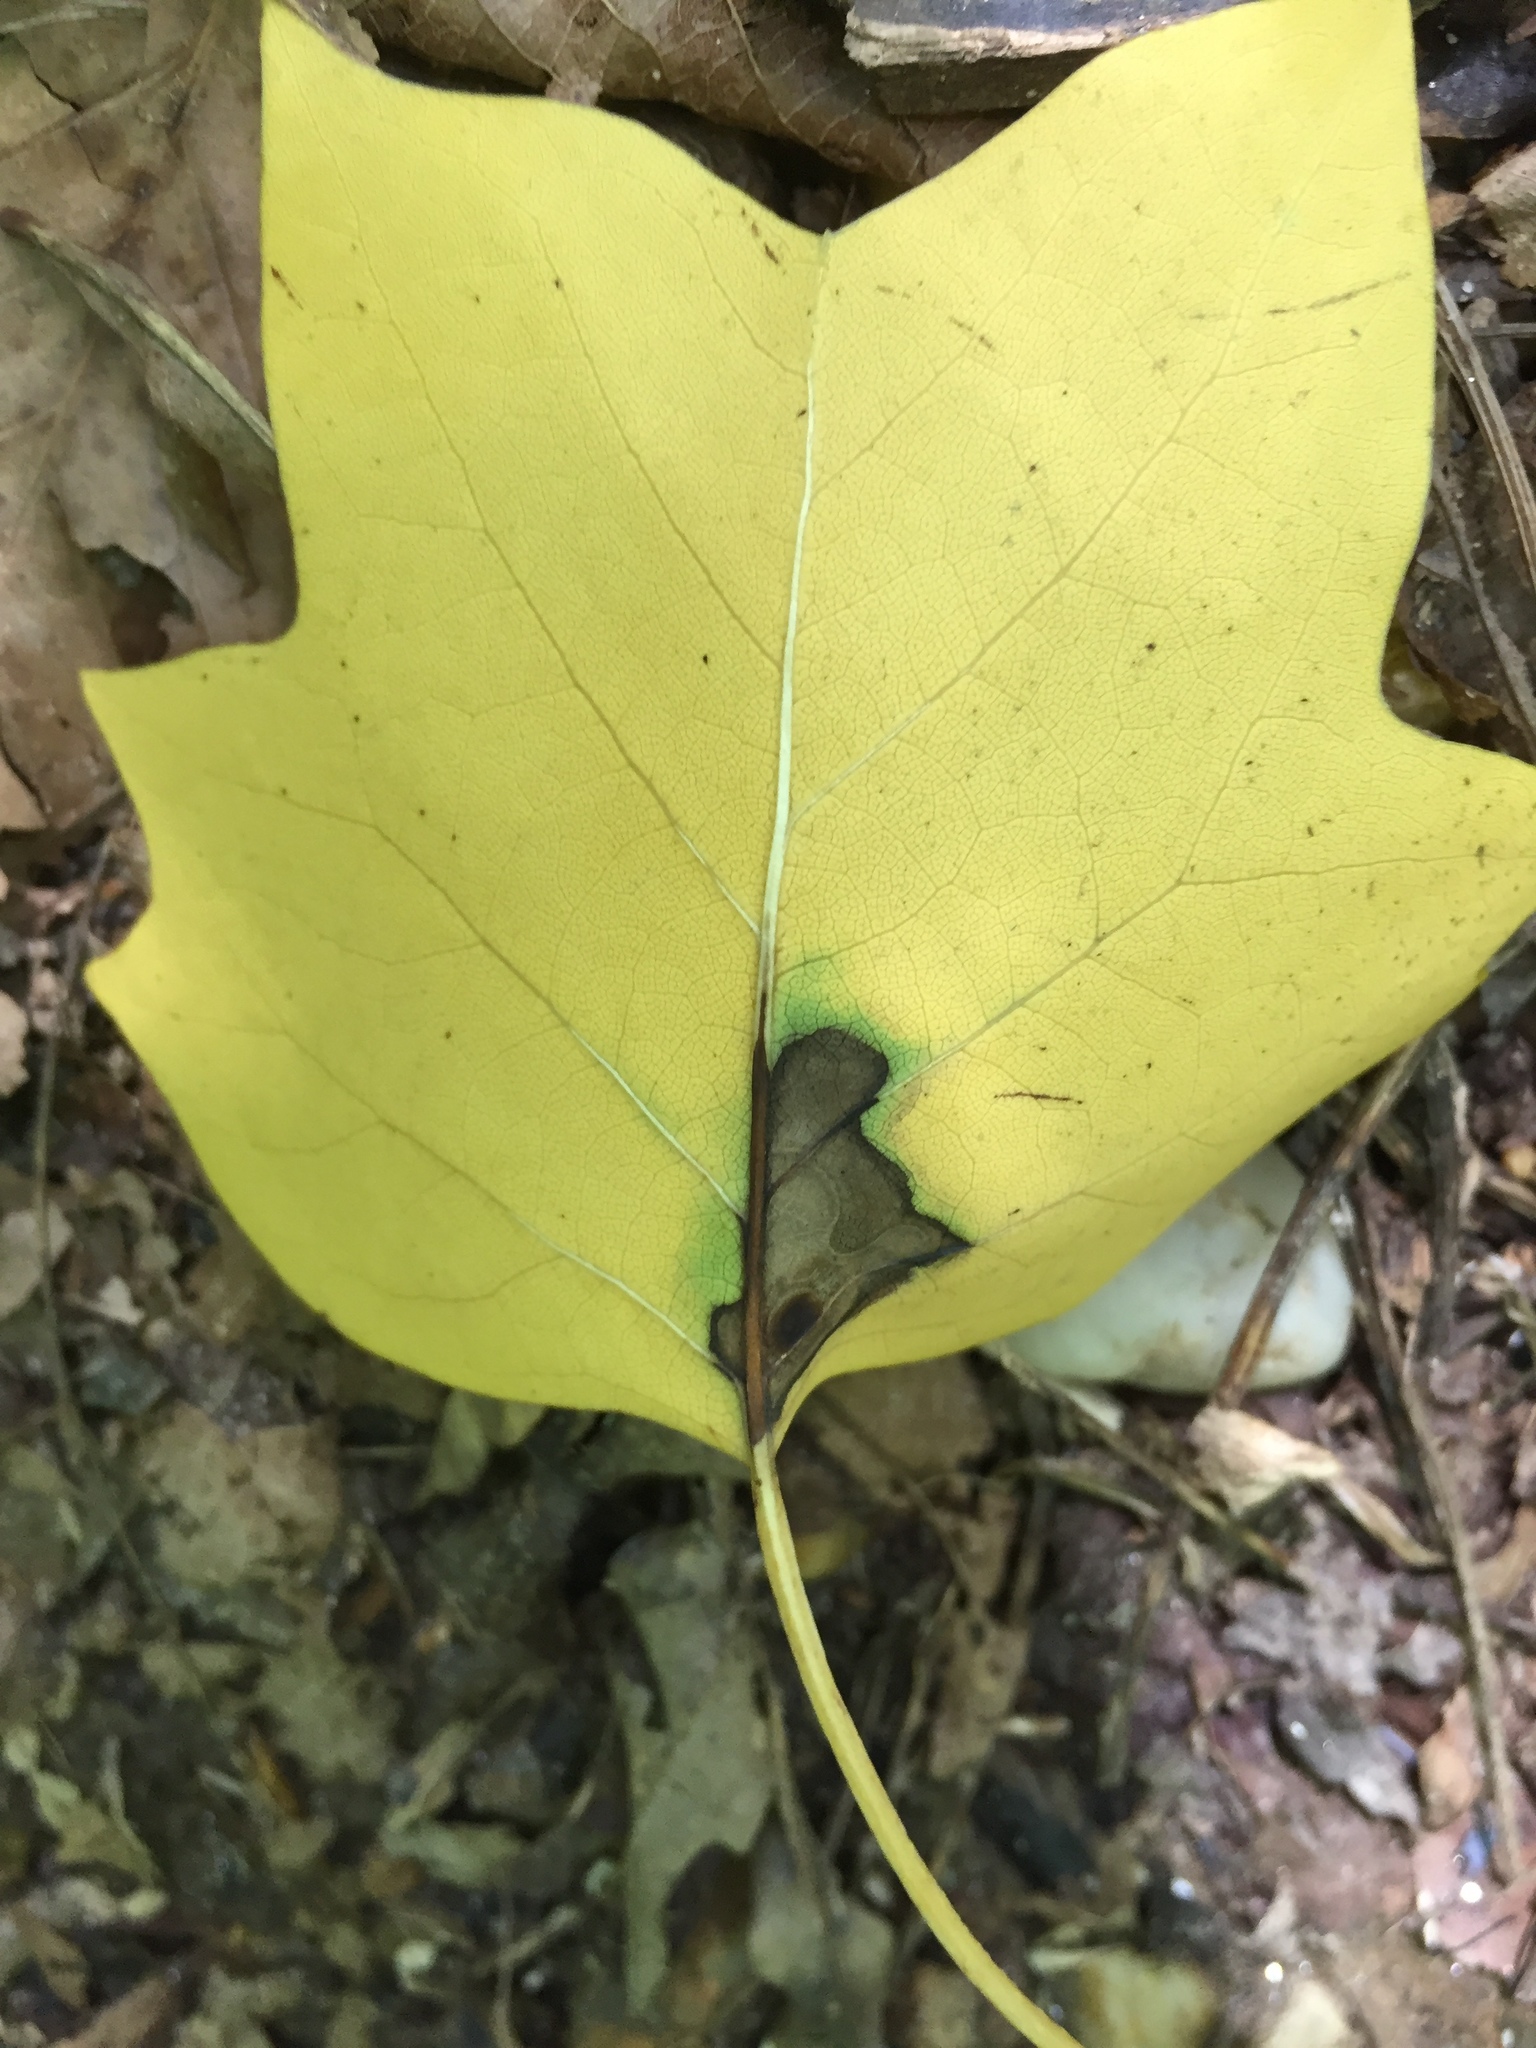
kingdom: Plantae
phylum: Tracheophyta
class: Magnoliopsida
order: Magnoliales
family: Magnoliaceae
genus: Liriodendron
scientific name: Liriodendron tulipifera
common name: Tulip tree
